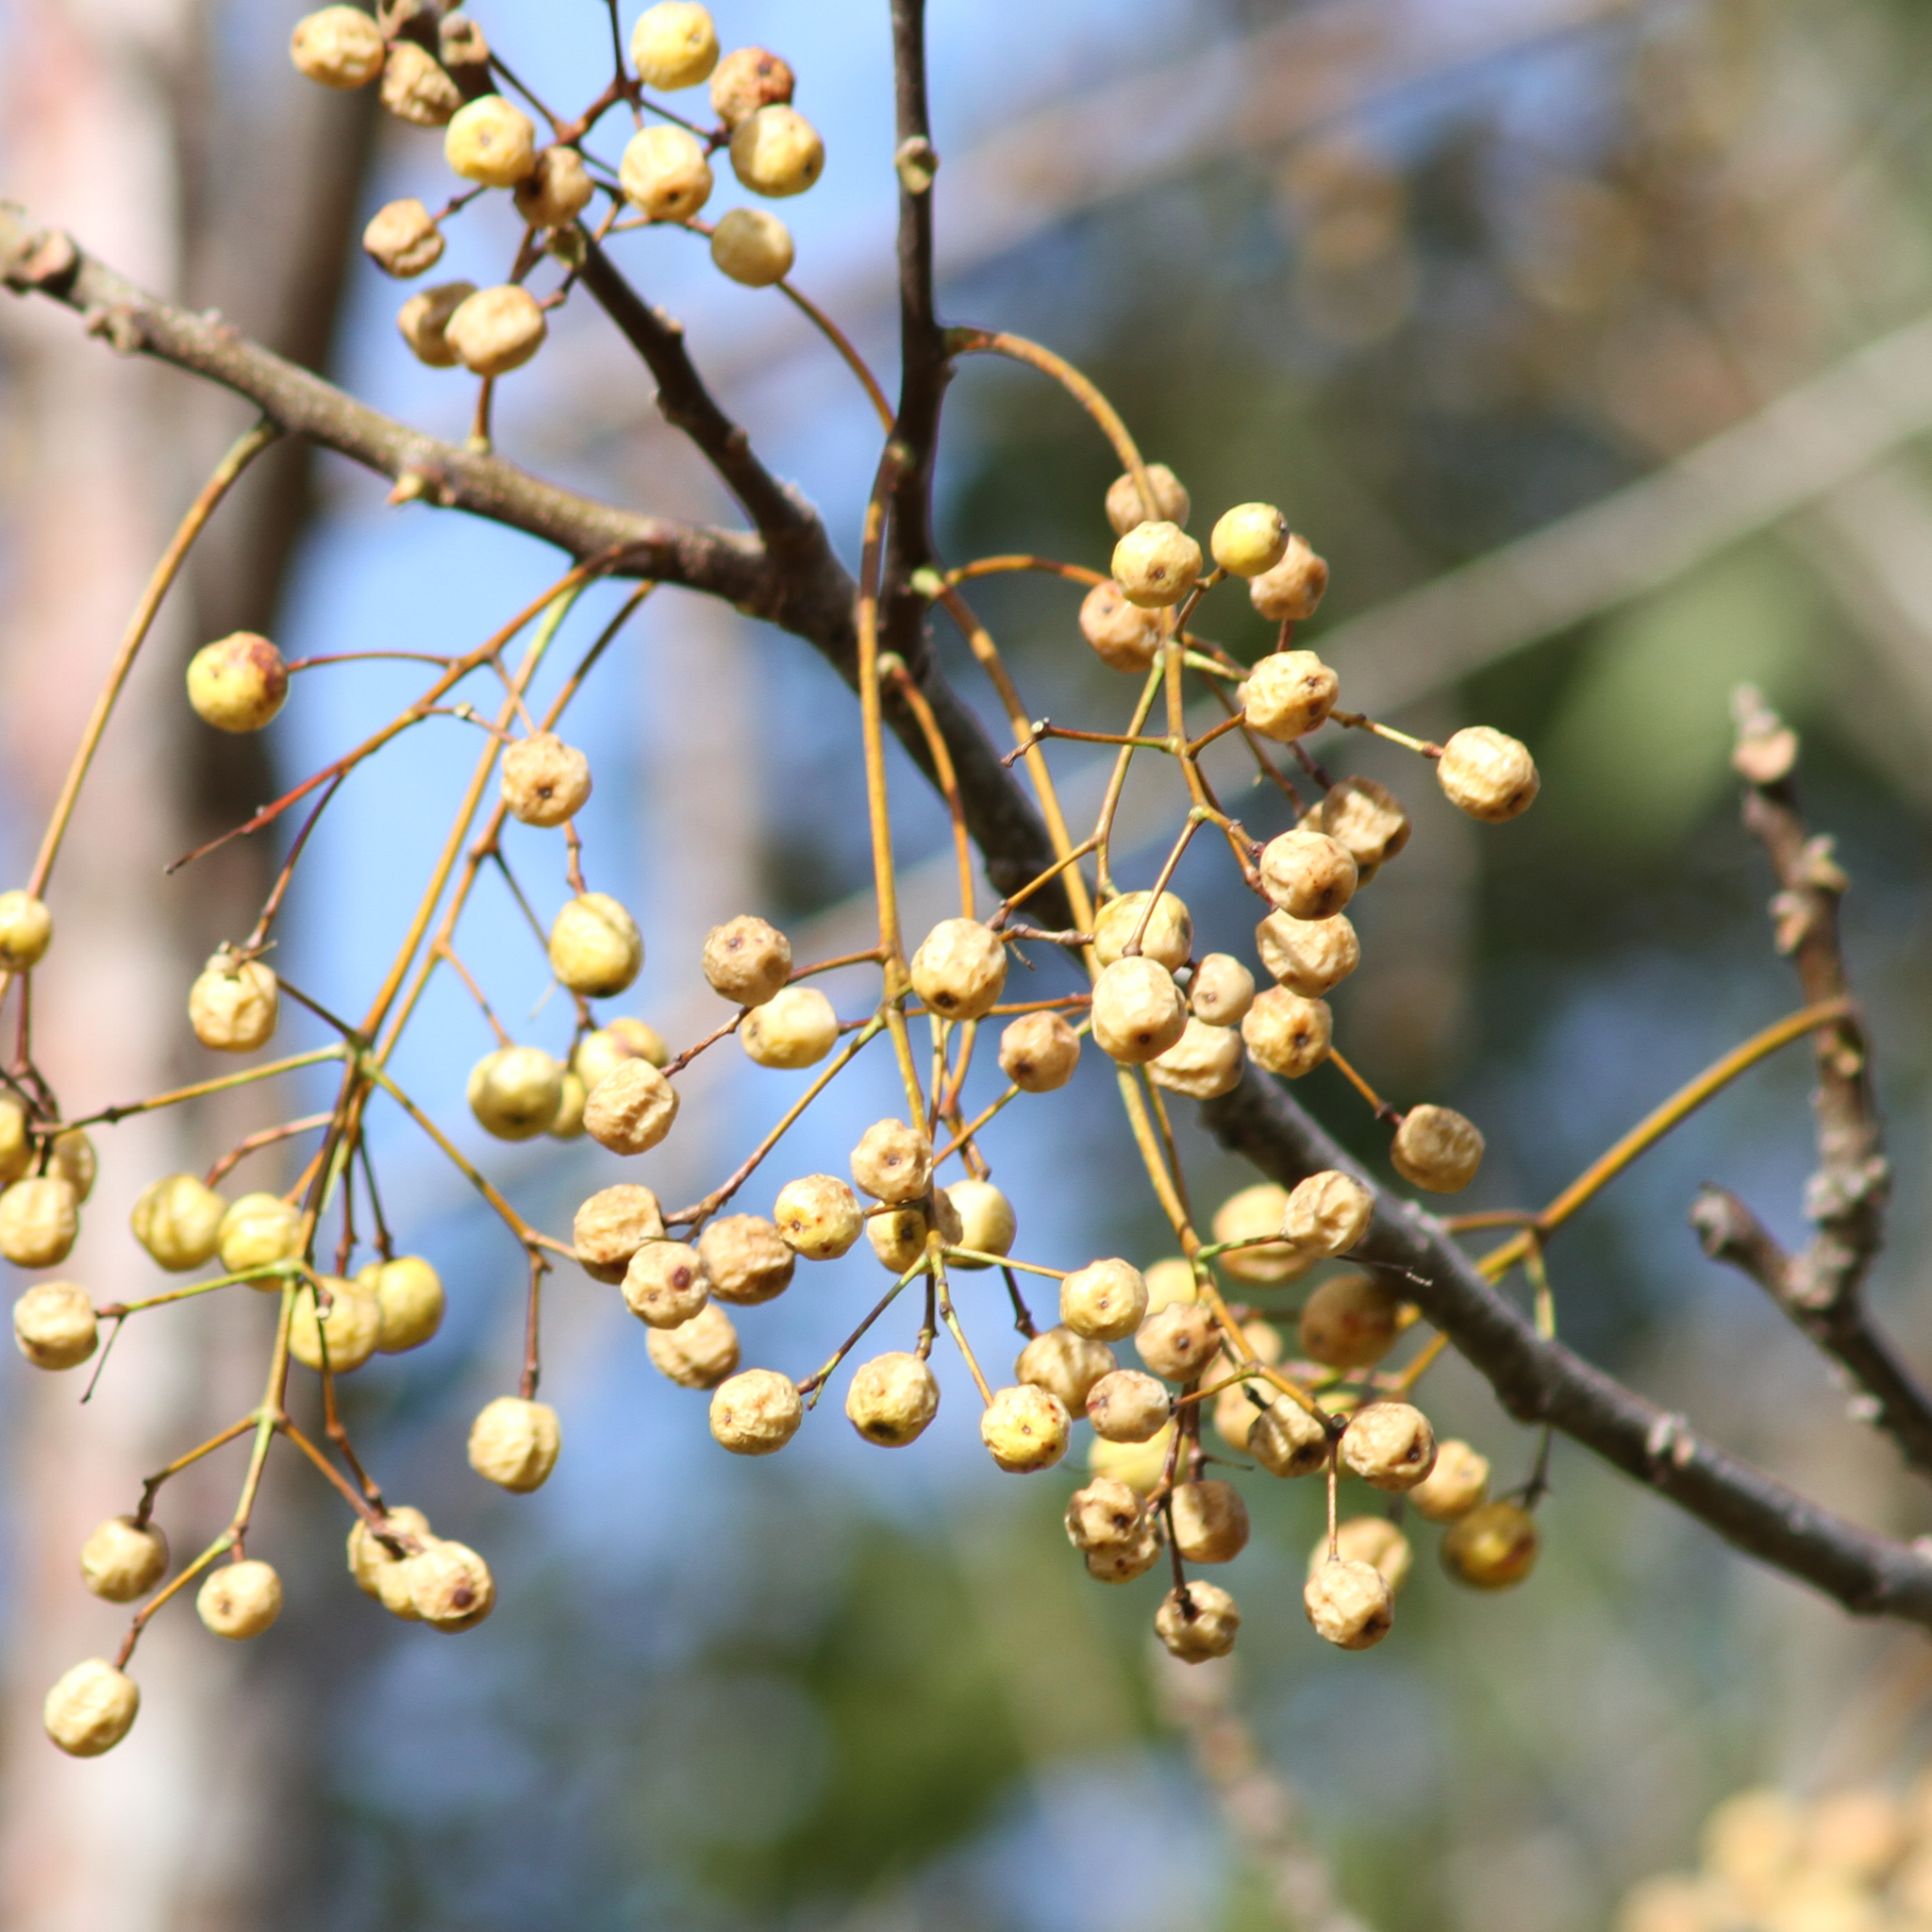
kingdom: Plantae
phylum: Tracheophyta
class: Magnoliopsida
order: Sapindales
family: Meliaceae
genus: Melia
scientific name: Melia azedarach
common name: Chinaberrytree
